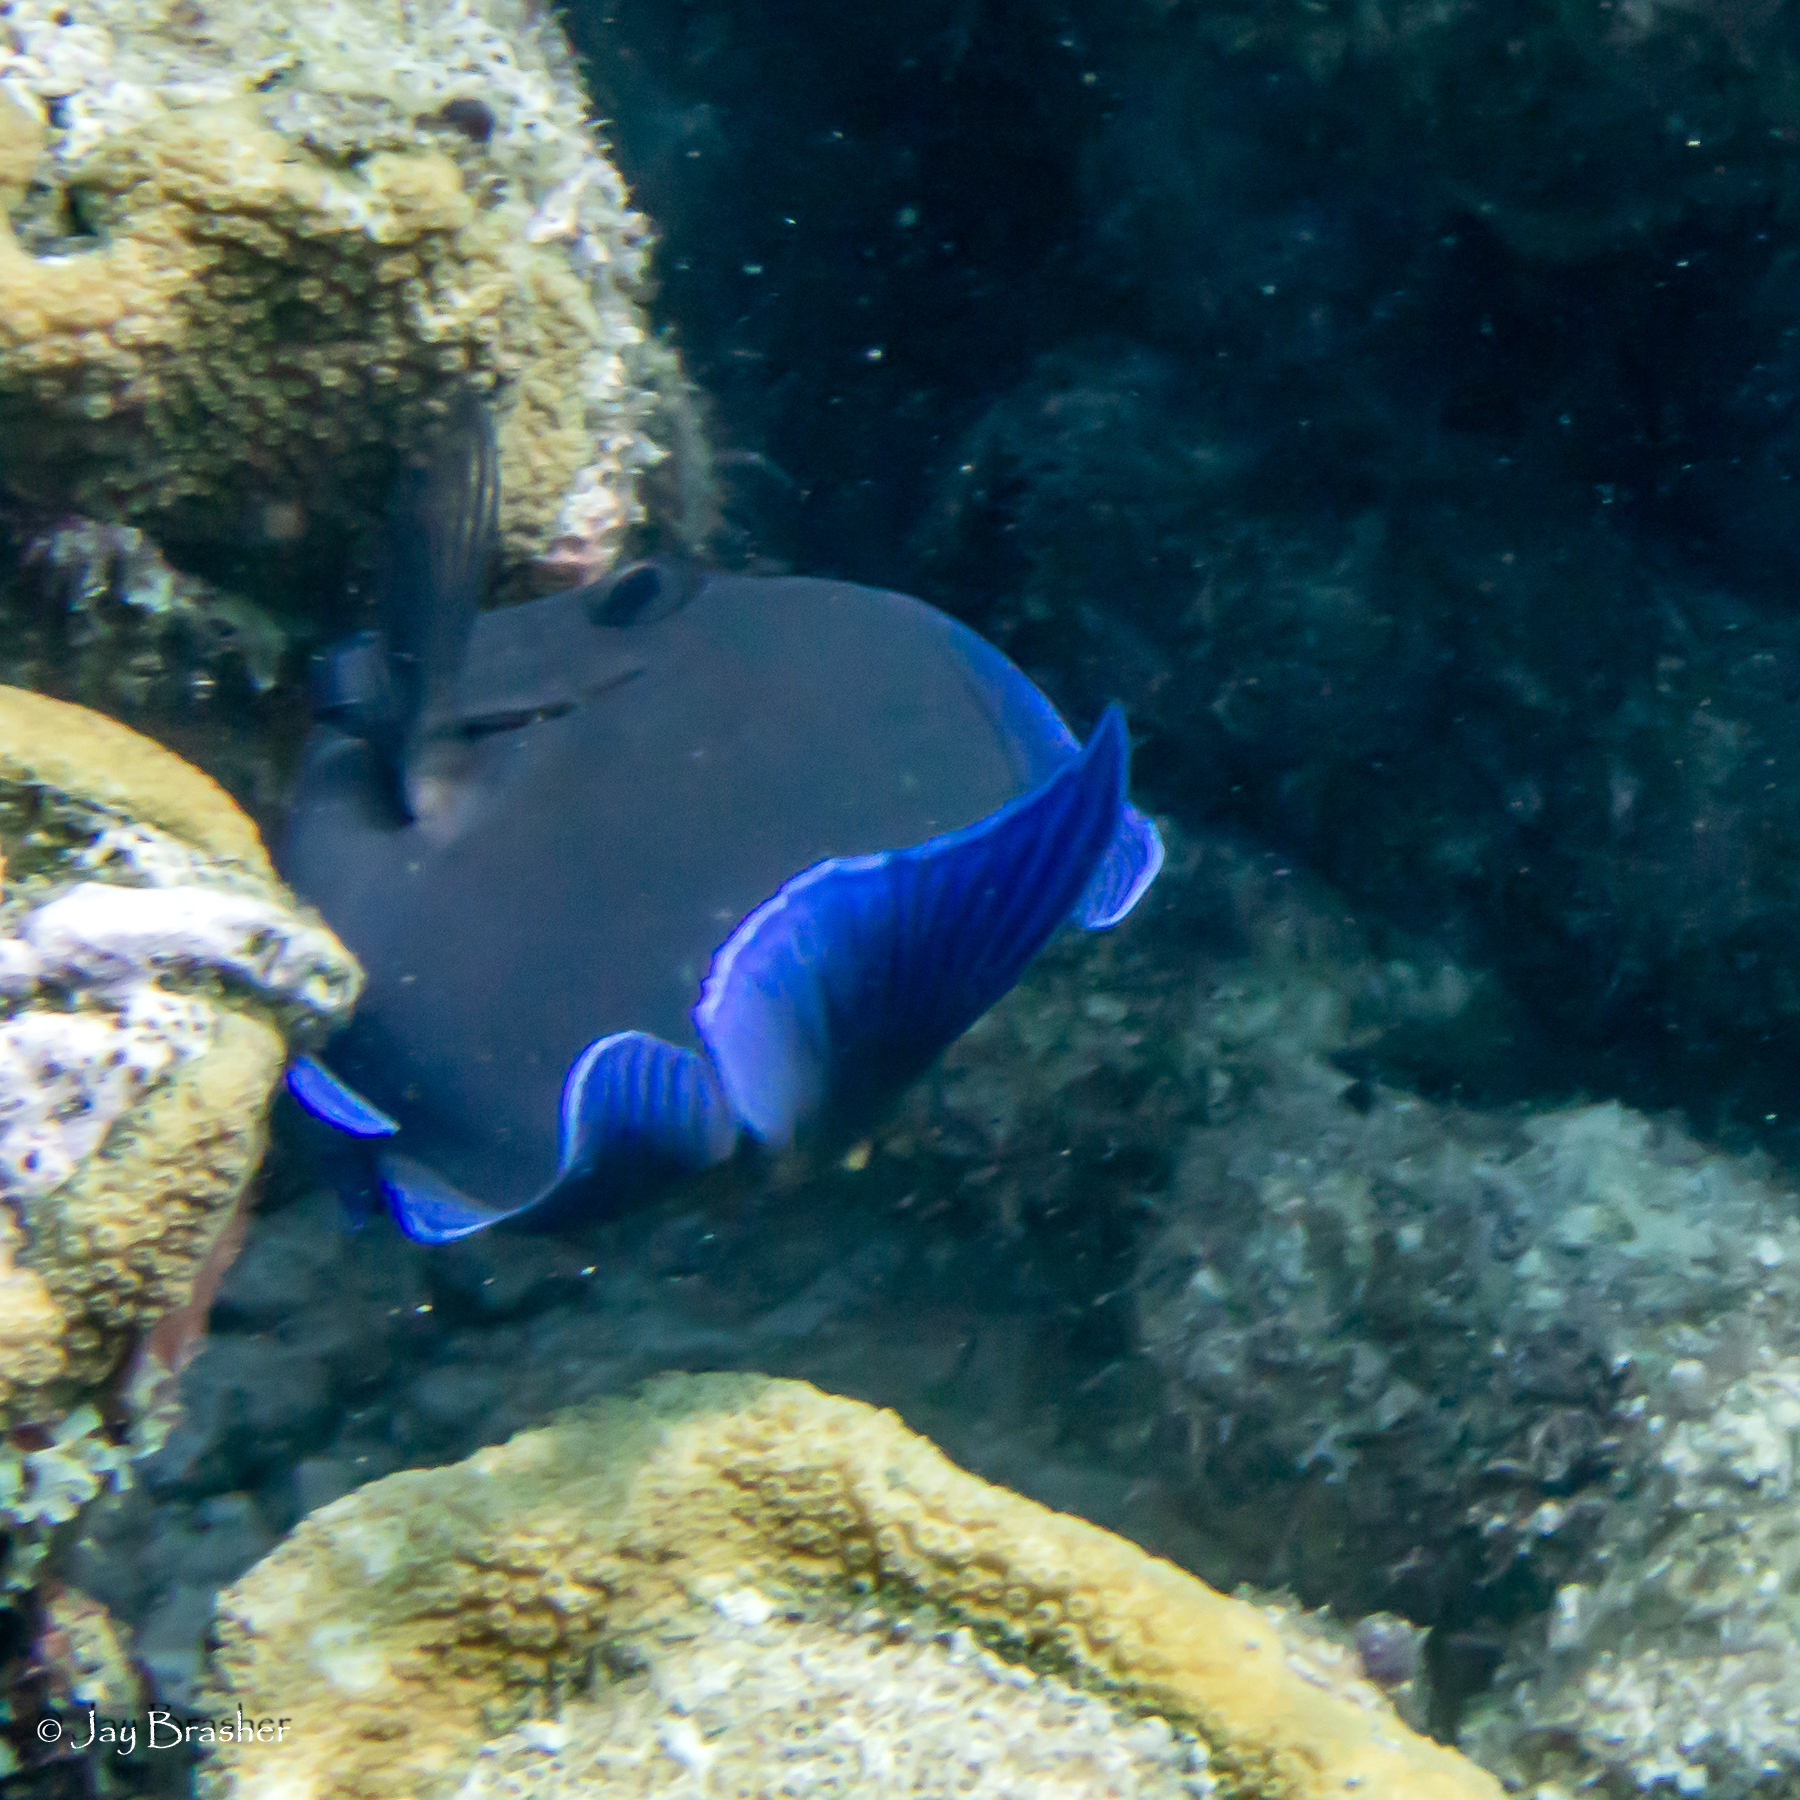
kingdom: Animalia
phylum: Chordata
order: Perciformes
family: Acanthuridae
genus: Acanthurus
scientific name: Acanthurus coeruleus
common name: Blue tang
